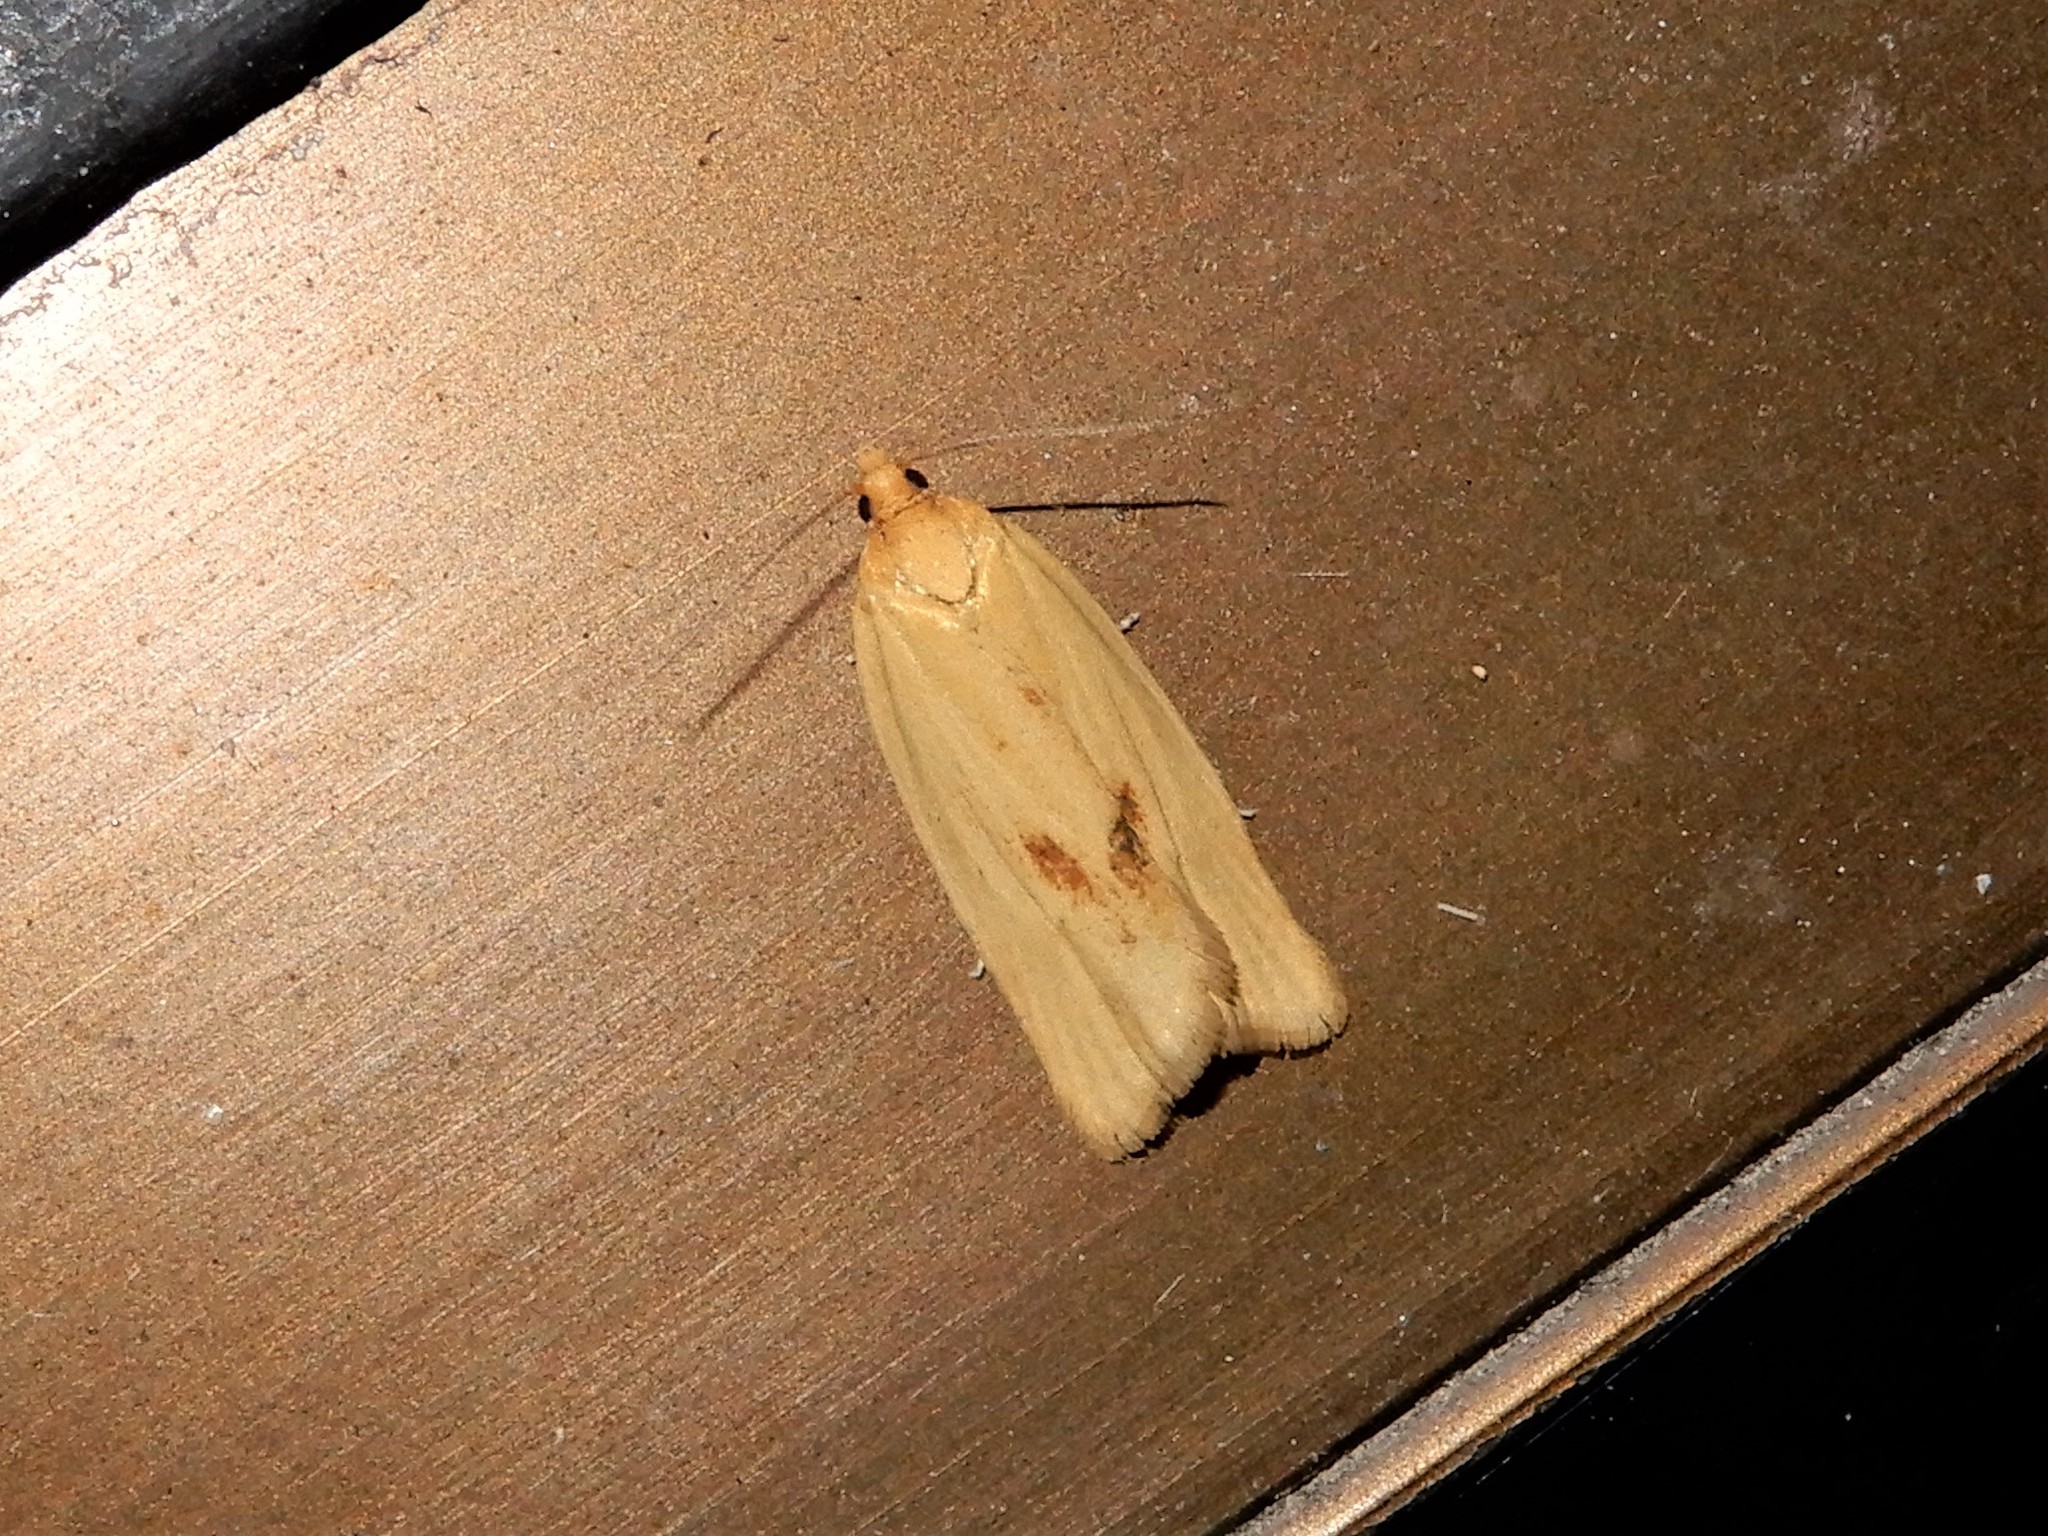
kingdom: Animalia
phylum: Arthropoda
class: Insecta
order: Lepidoptera
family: Tortricidae
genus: Clepsis
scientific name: Clepsis
